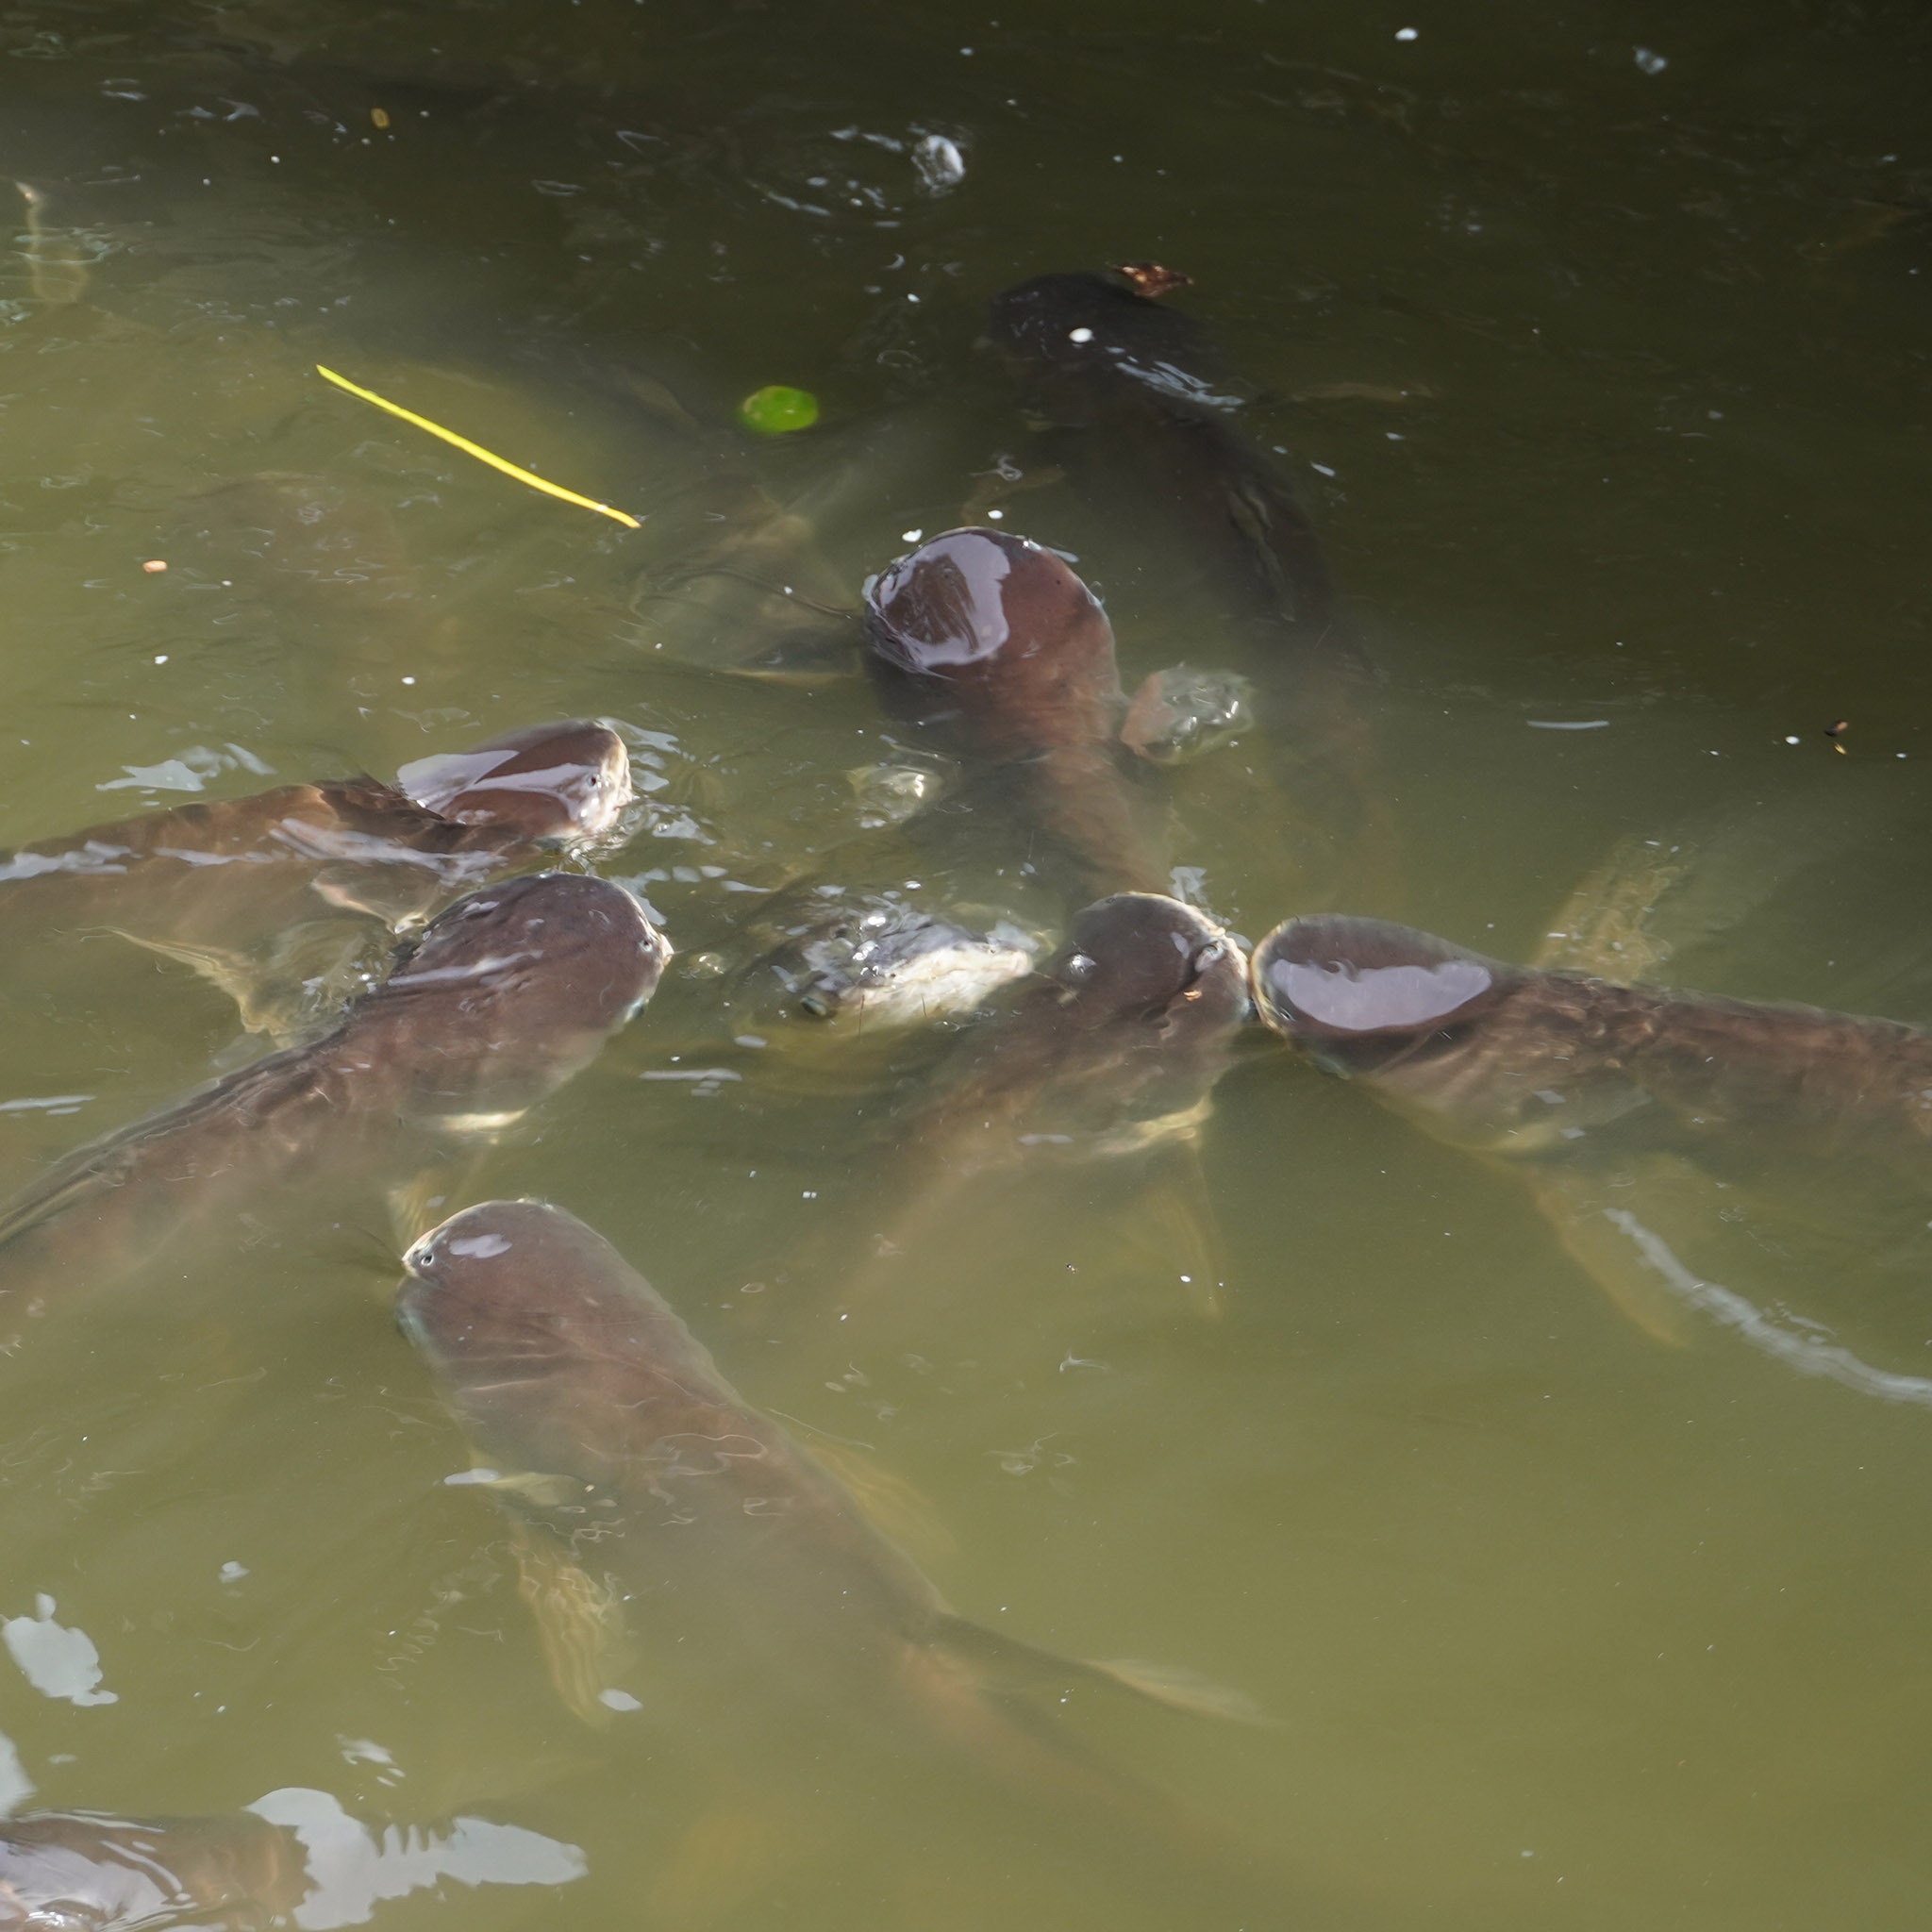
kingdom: Animalia
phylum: Chordata
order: Siluriformes
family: Pangasiidae
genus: Pangasianodon
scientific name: Pangasianodon hypophthalmus
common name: Striped catfish
